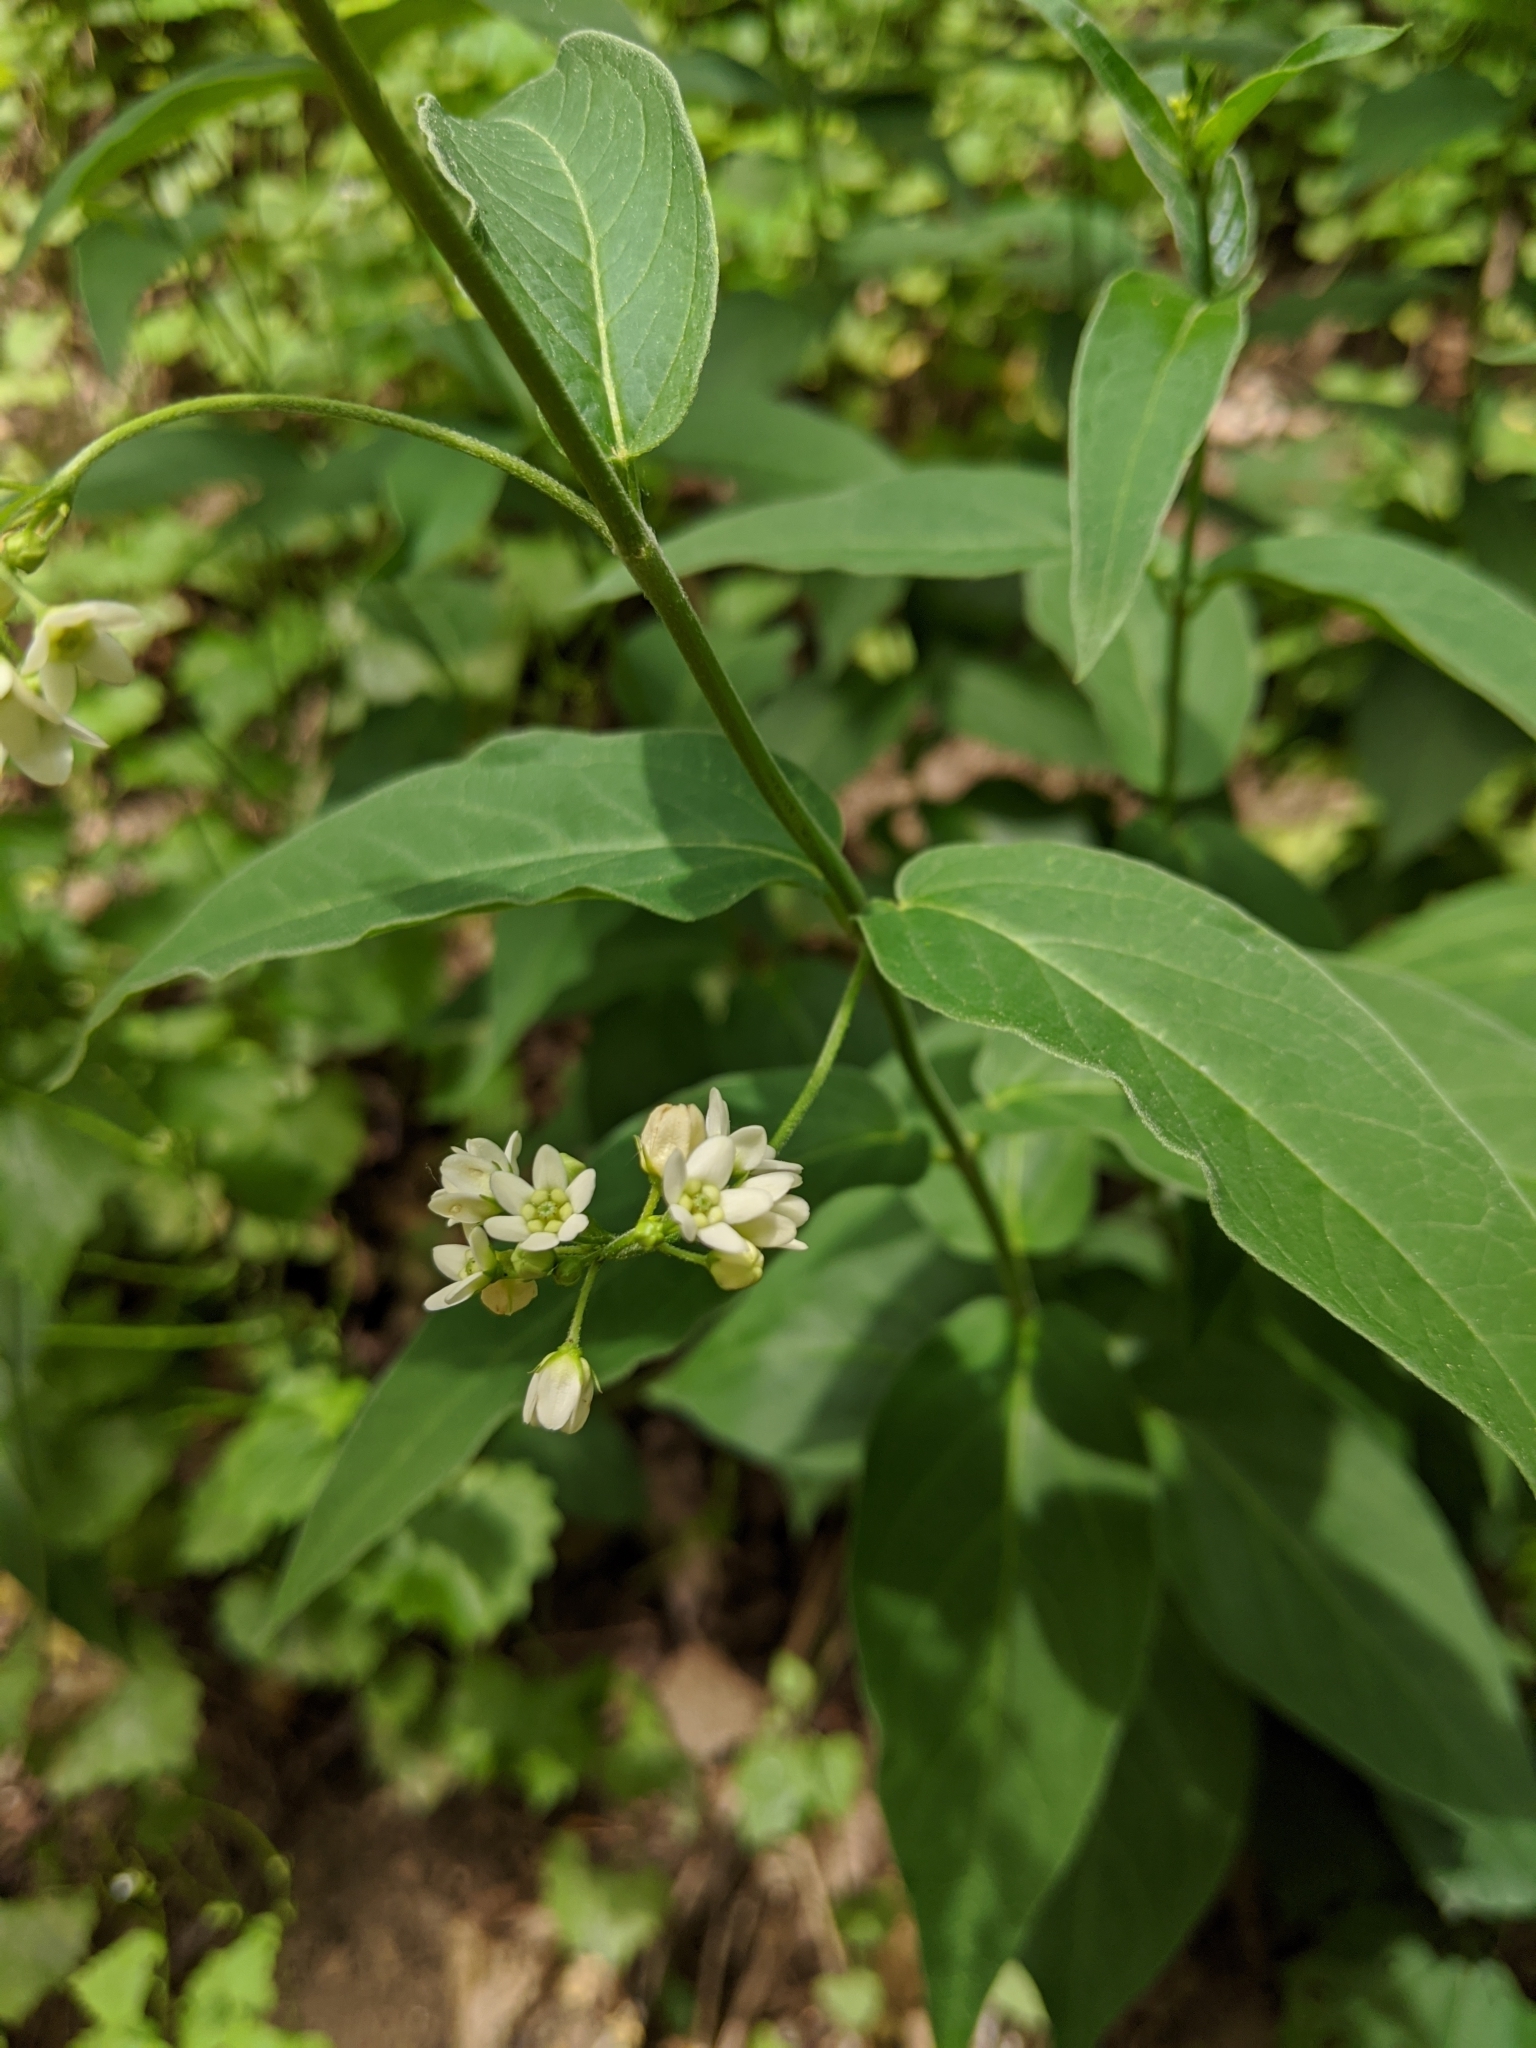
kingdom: Plantae
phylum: Tracheophyta
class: Magnoliopsida
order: Gentianales
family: Apocynaceae
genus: Vincetoxicum
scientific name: Vincetoxicum hirundinaria
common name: White swallowwort
